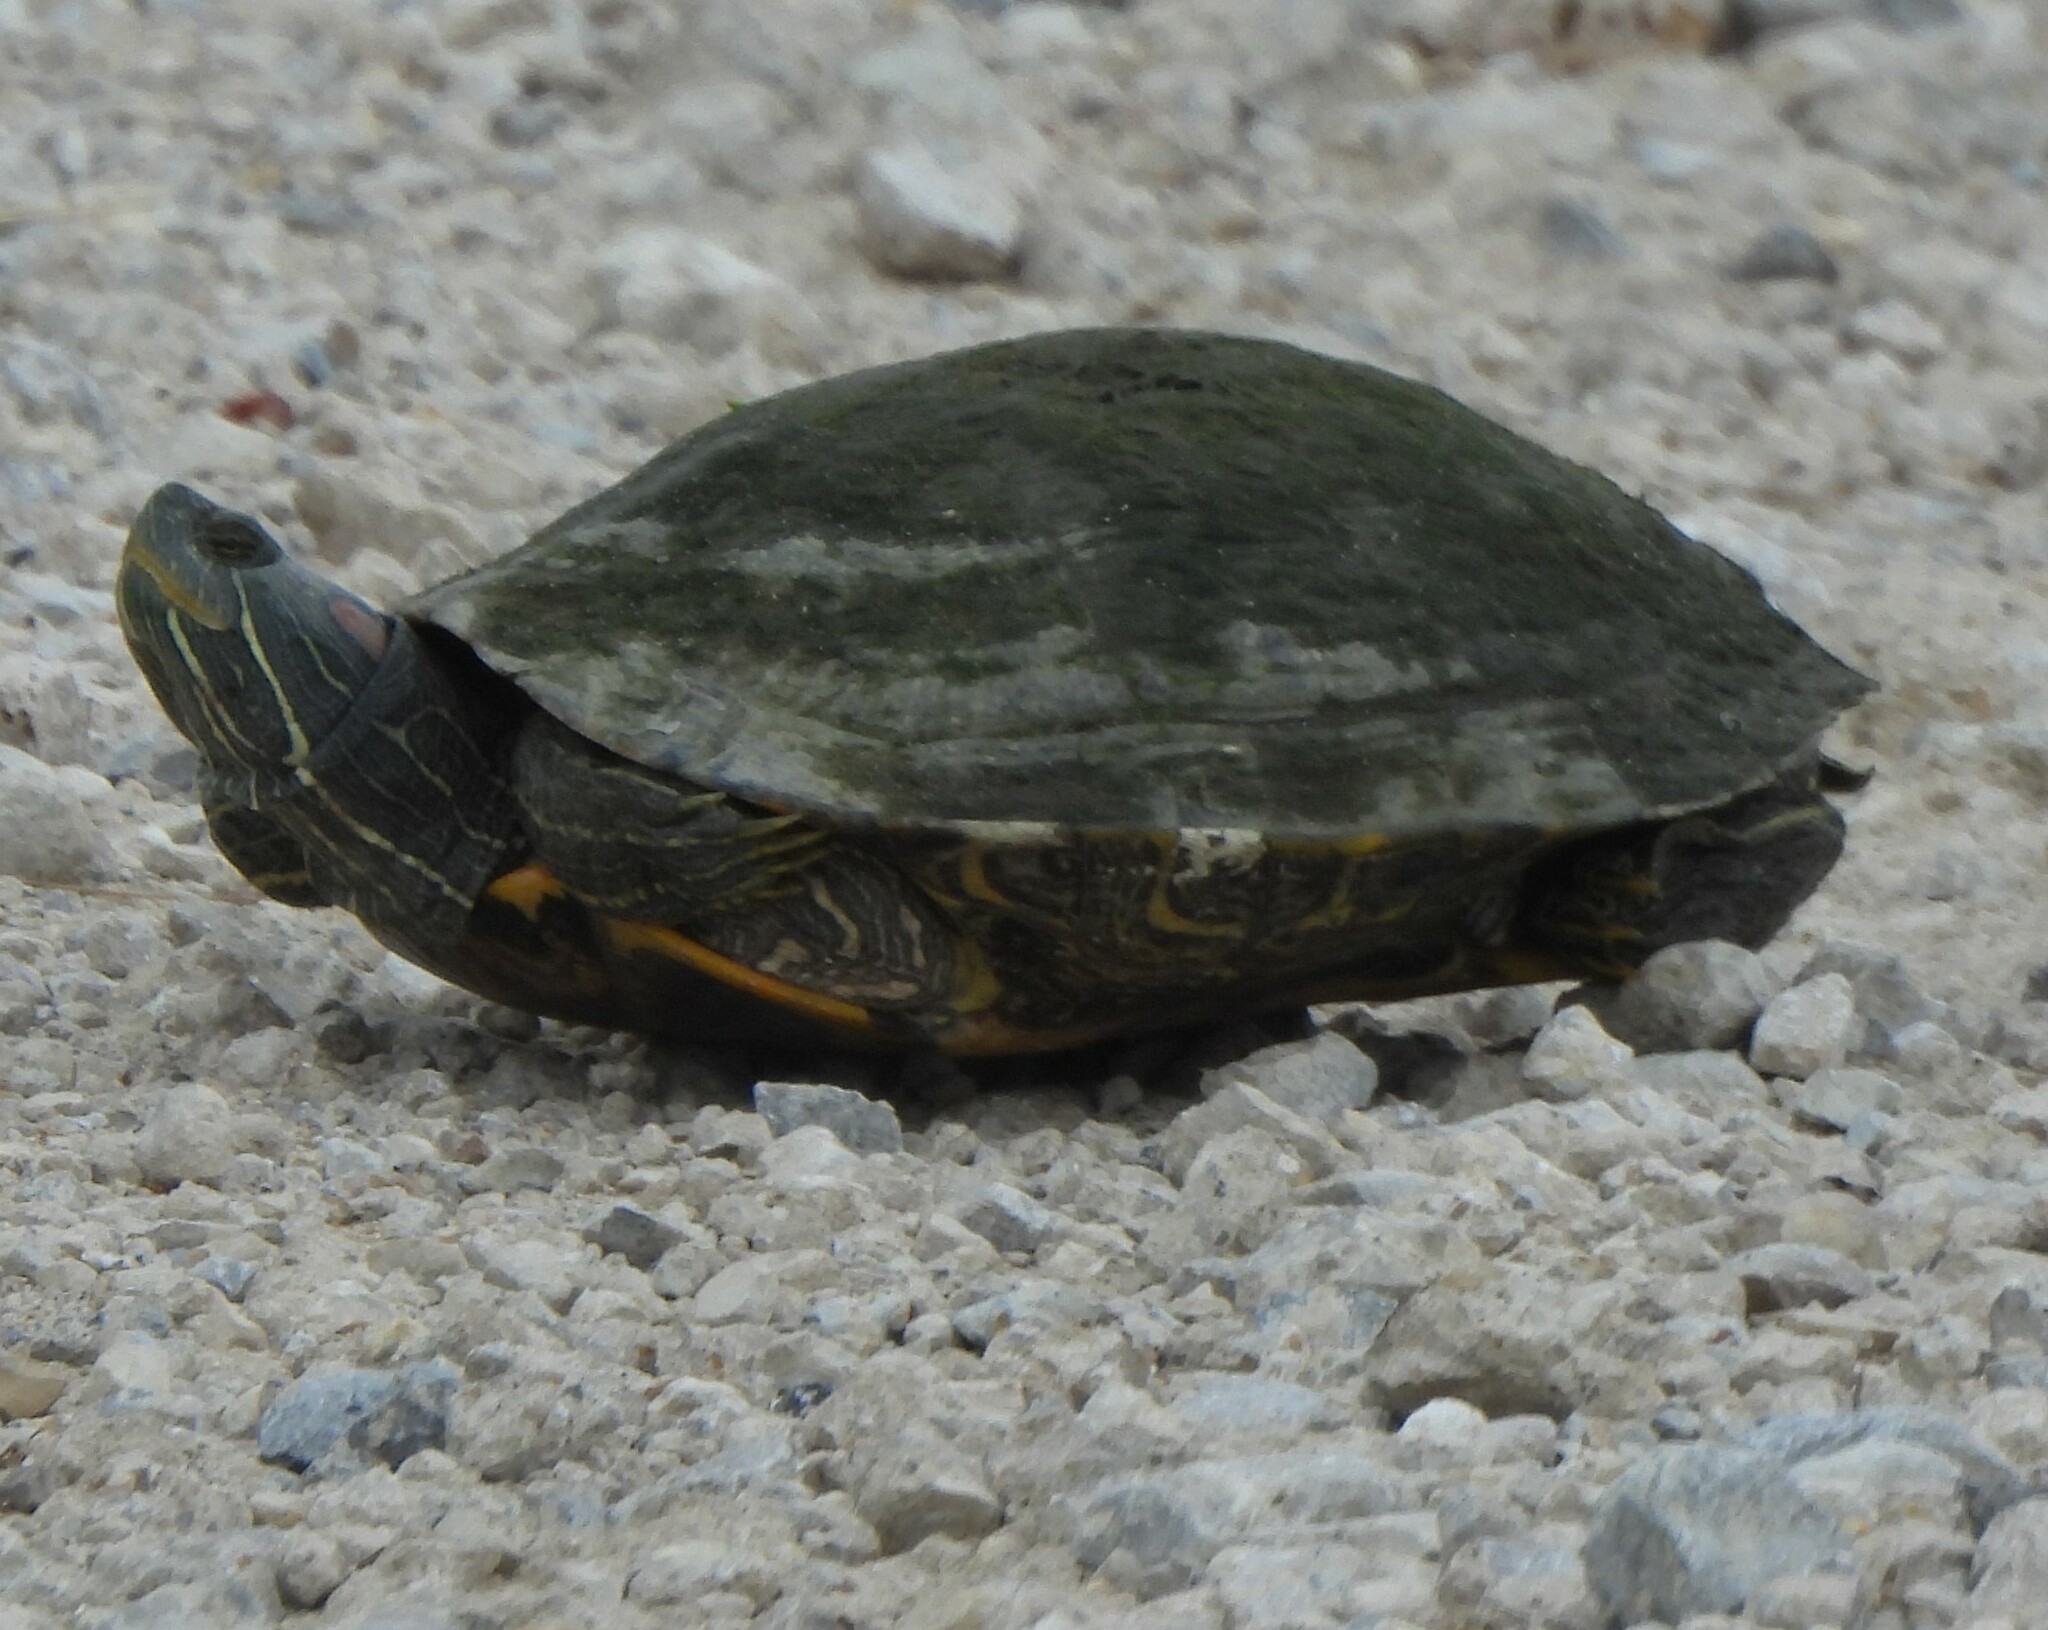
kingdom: Animalia
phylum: Chordata
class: Testudines
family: Emydidae
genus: Trachemys
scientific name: Trachemys scripta
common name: Slider
